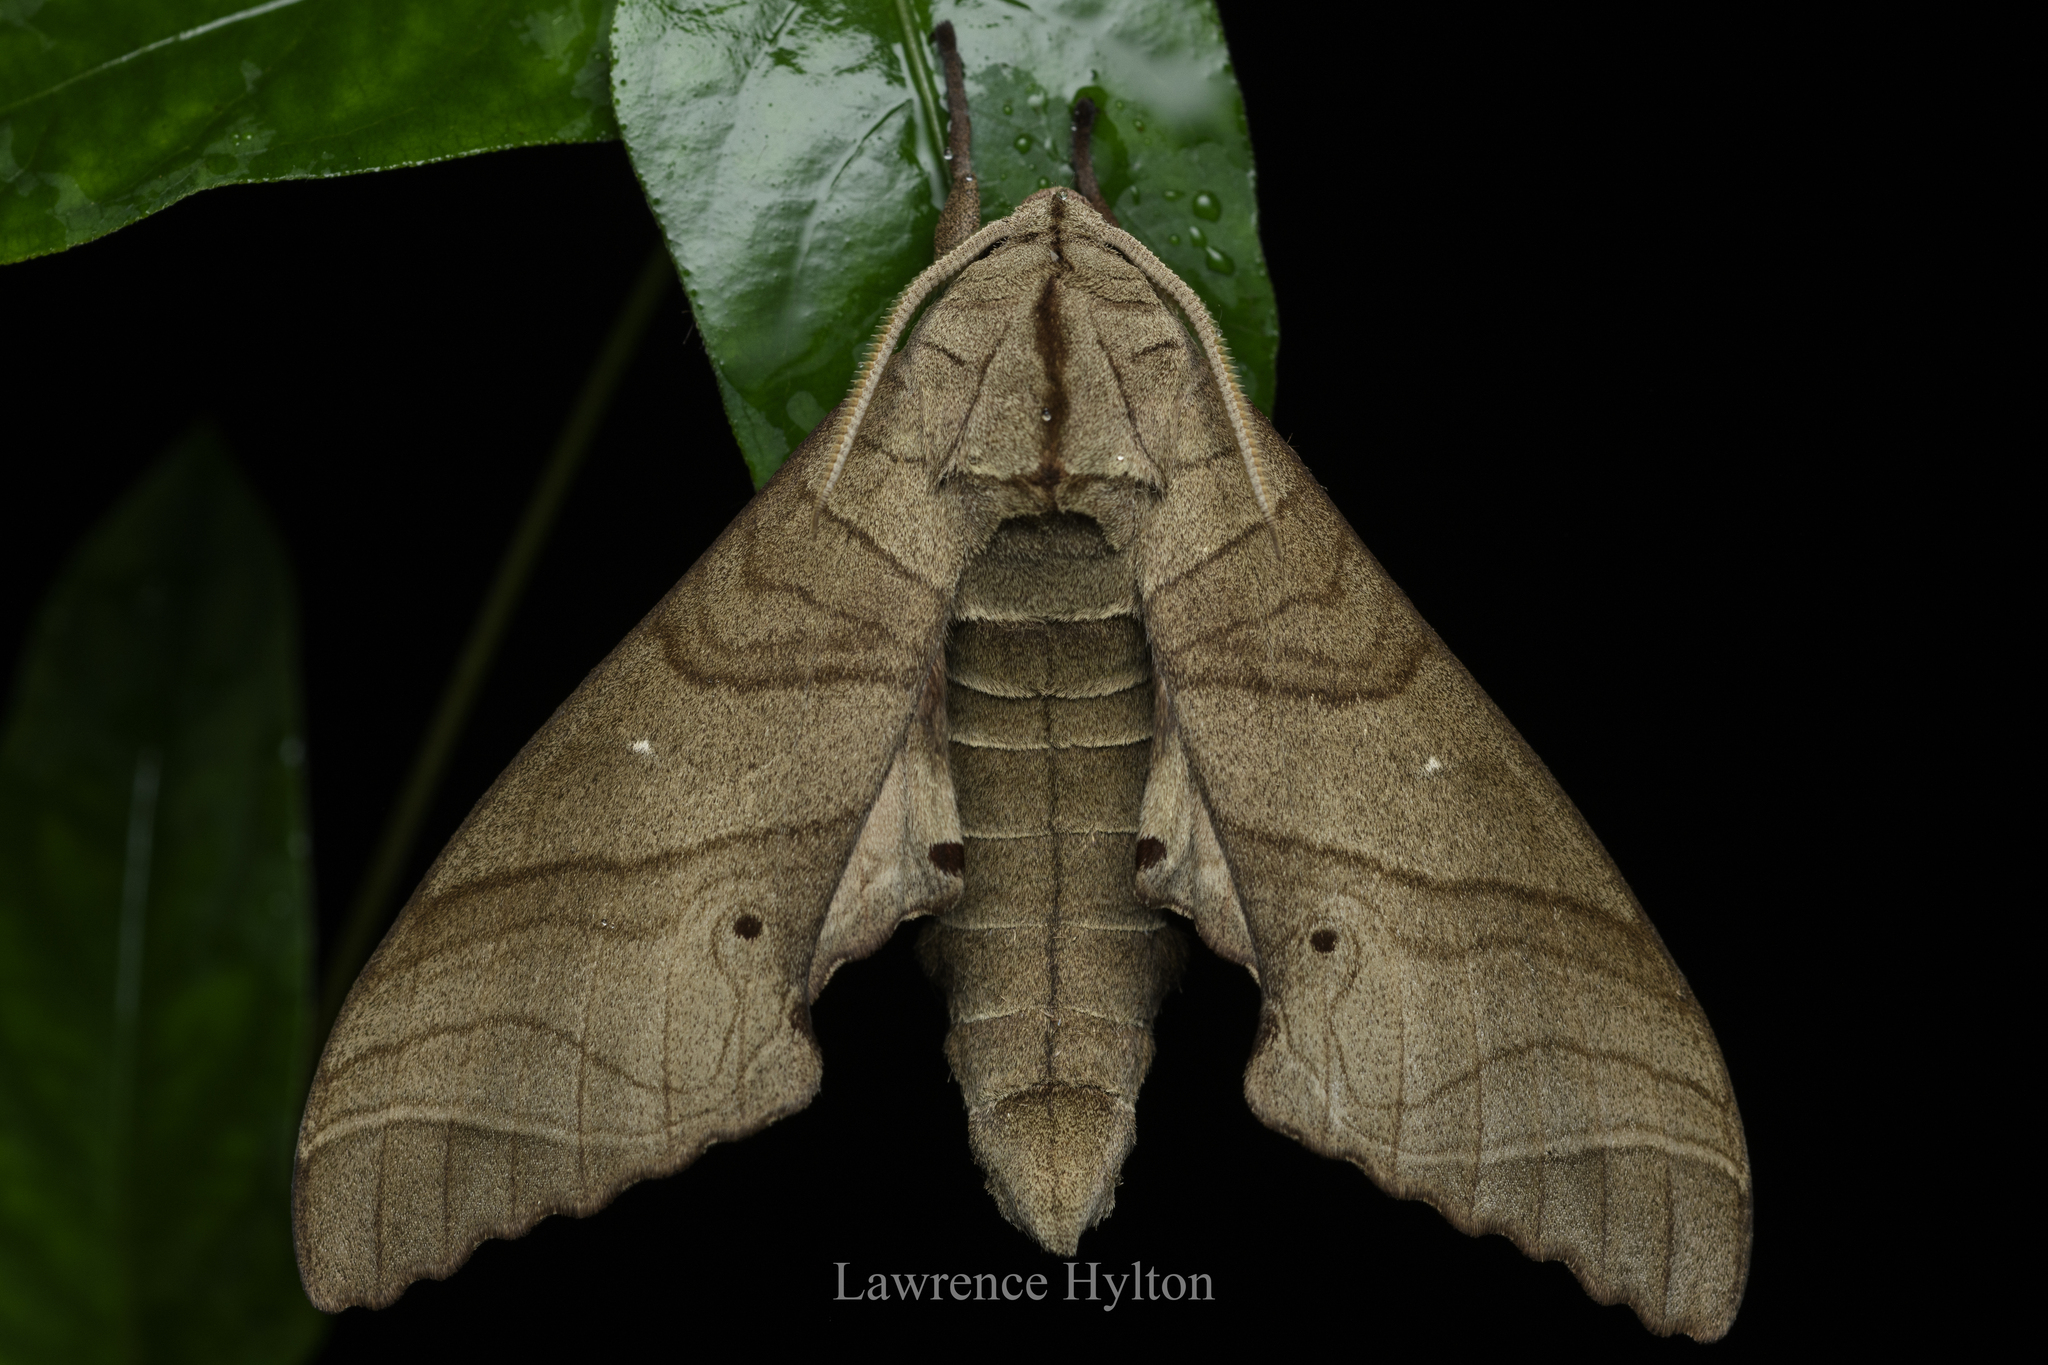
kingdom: Animalia
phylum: Arthropoda
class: Insecta
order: Lepidoptera
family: Sphingidae
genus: Marumba
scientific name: Marumba dyras
